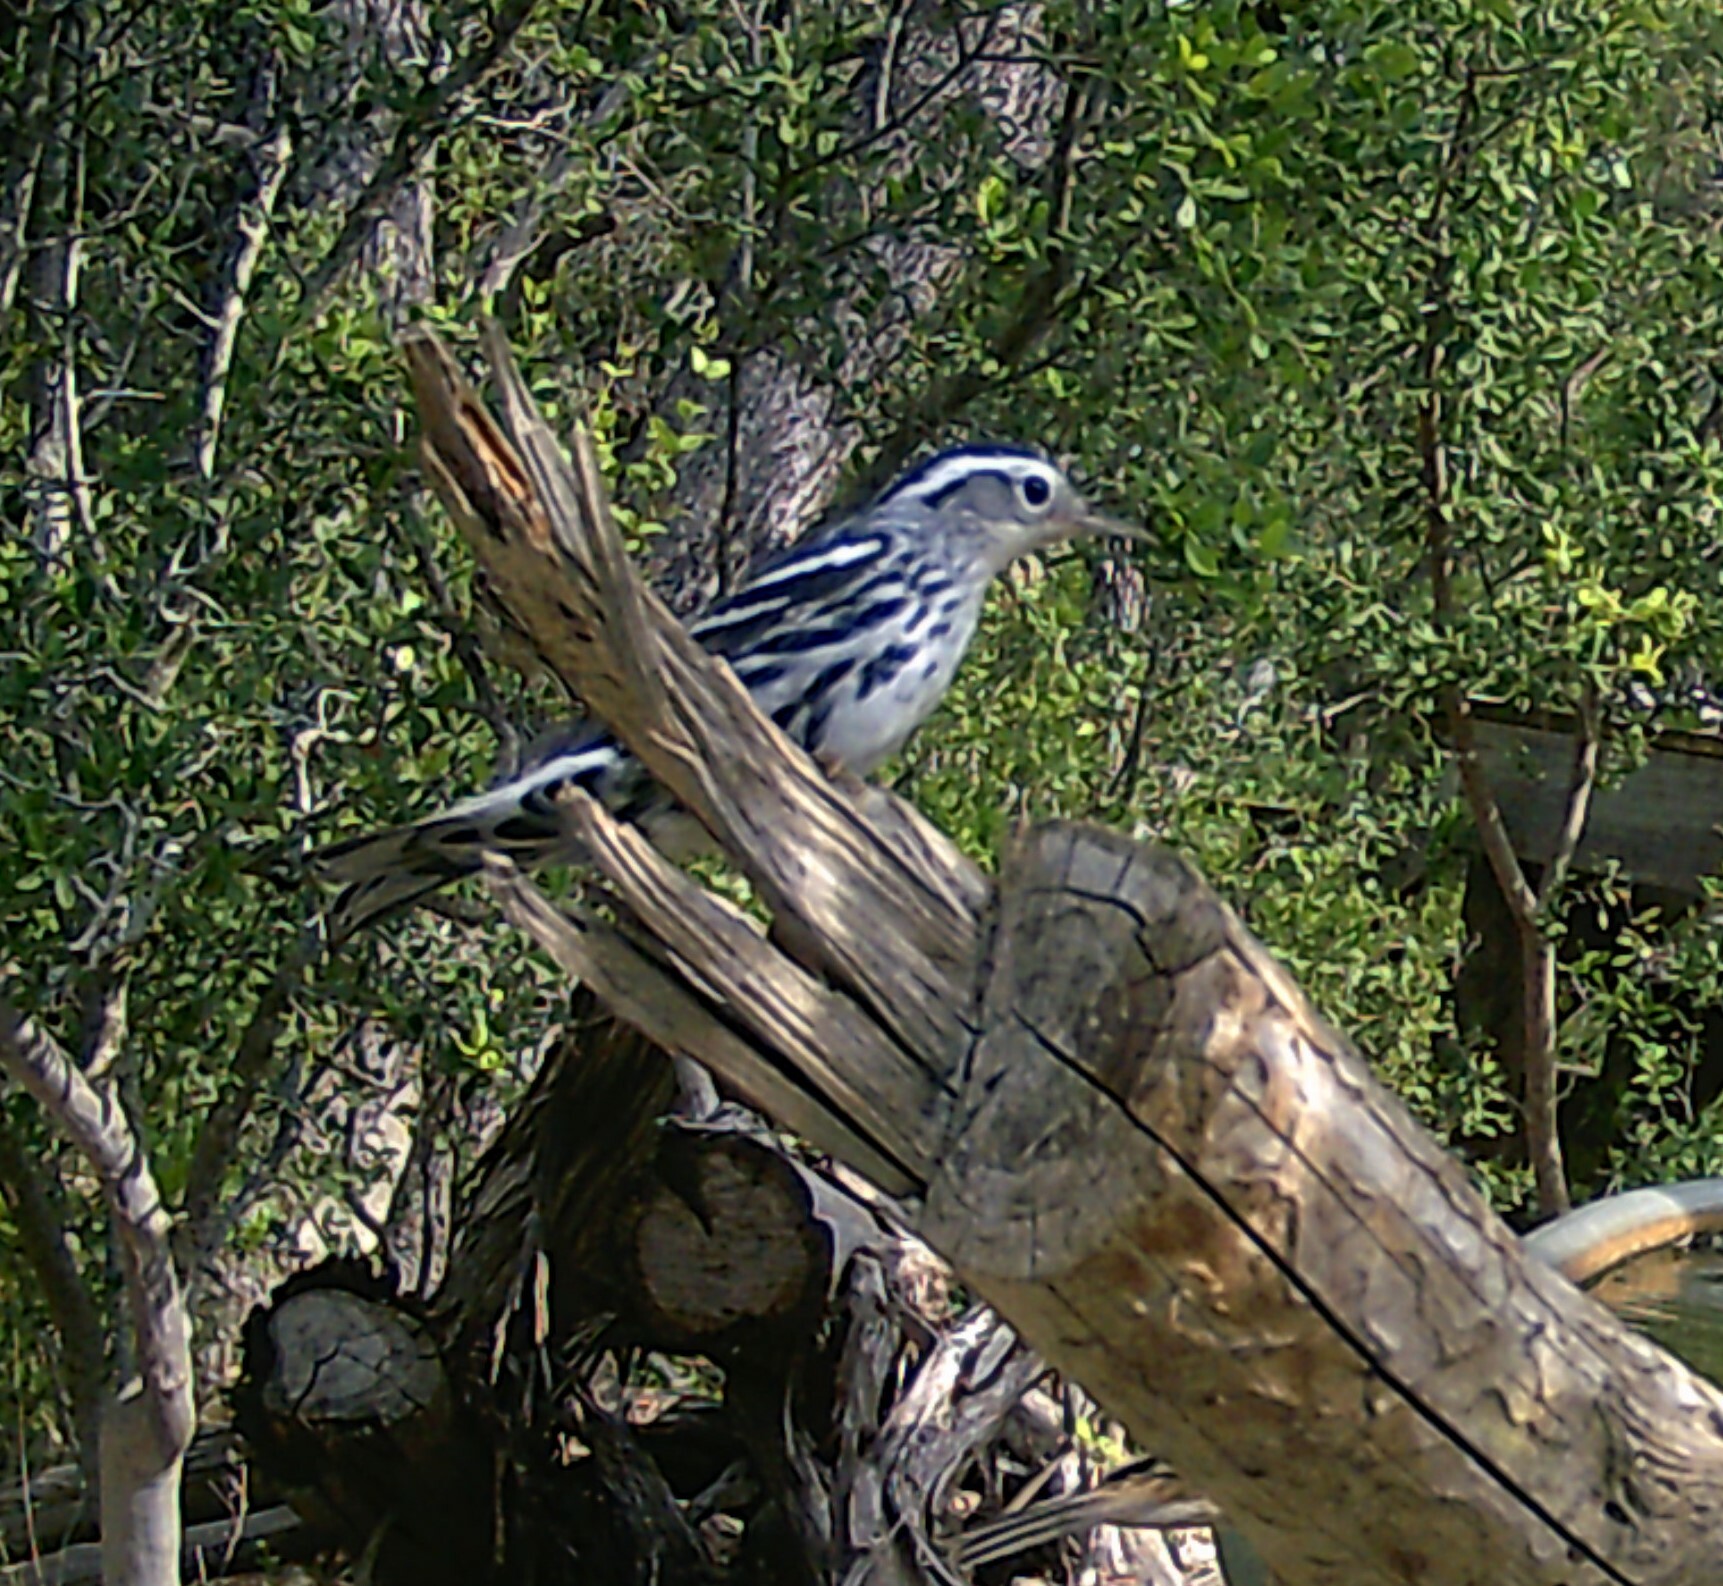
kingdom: Animalia
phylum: Chordata
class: Aves
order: Passeriformes
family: Parulidae
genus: Mniotilta
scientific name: Mniotilta varia
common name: Black-and-white warbler
